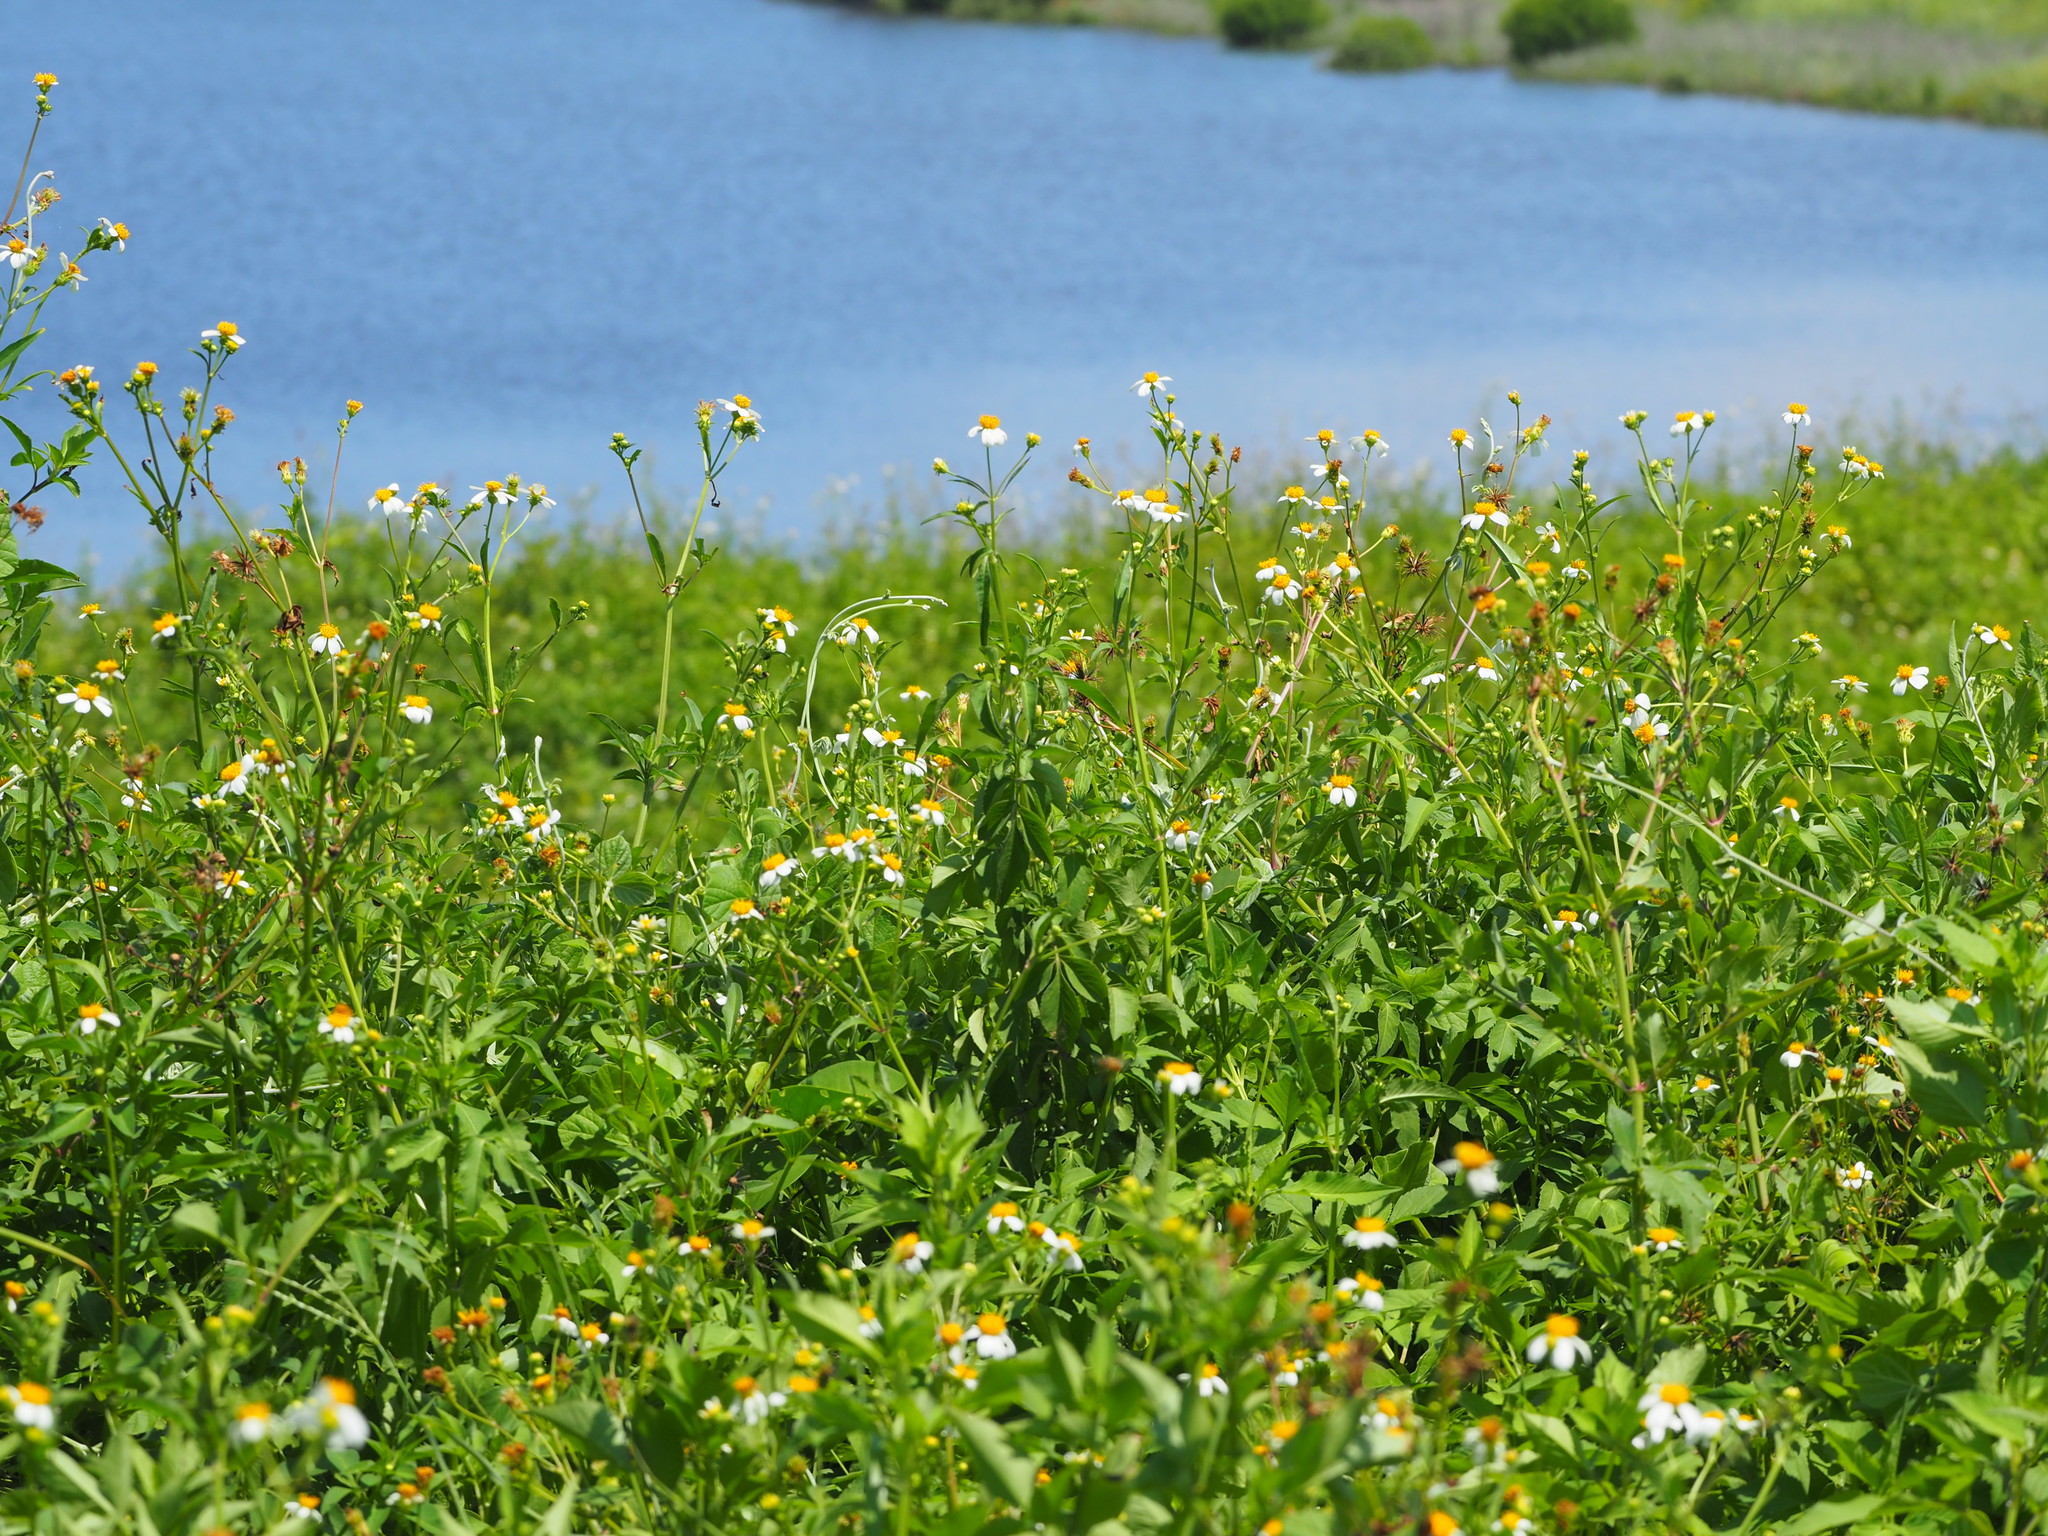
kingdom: Plantae
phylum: Tracheophyta
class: Magnoliopsida
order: Asterales
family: Asteraceae
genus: Bidens
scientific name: Bidens alba
